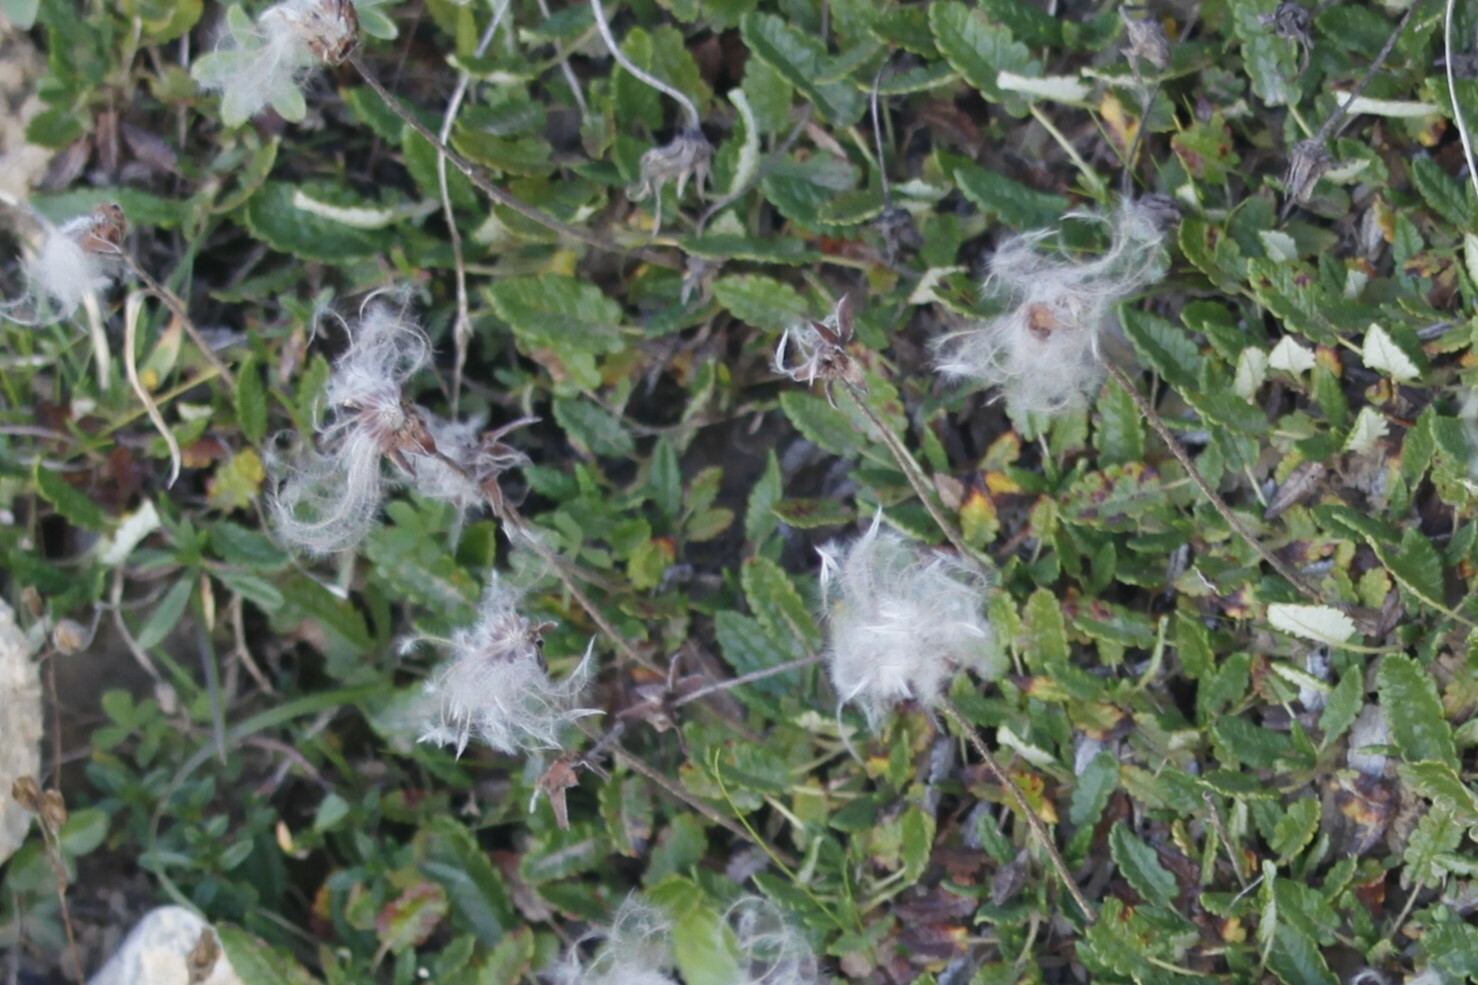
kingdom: Plantae
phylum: Tracheophyta
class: Magnoliopsida
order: Rosales
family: Rosaceae
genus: Dryas
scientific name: Dryas octopetala
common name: Eight-petal mountain-avens
